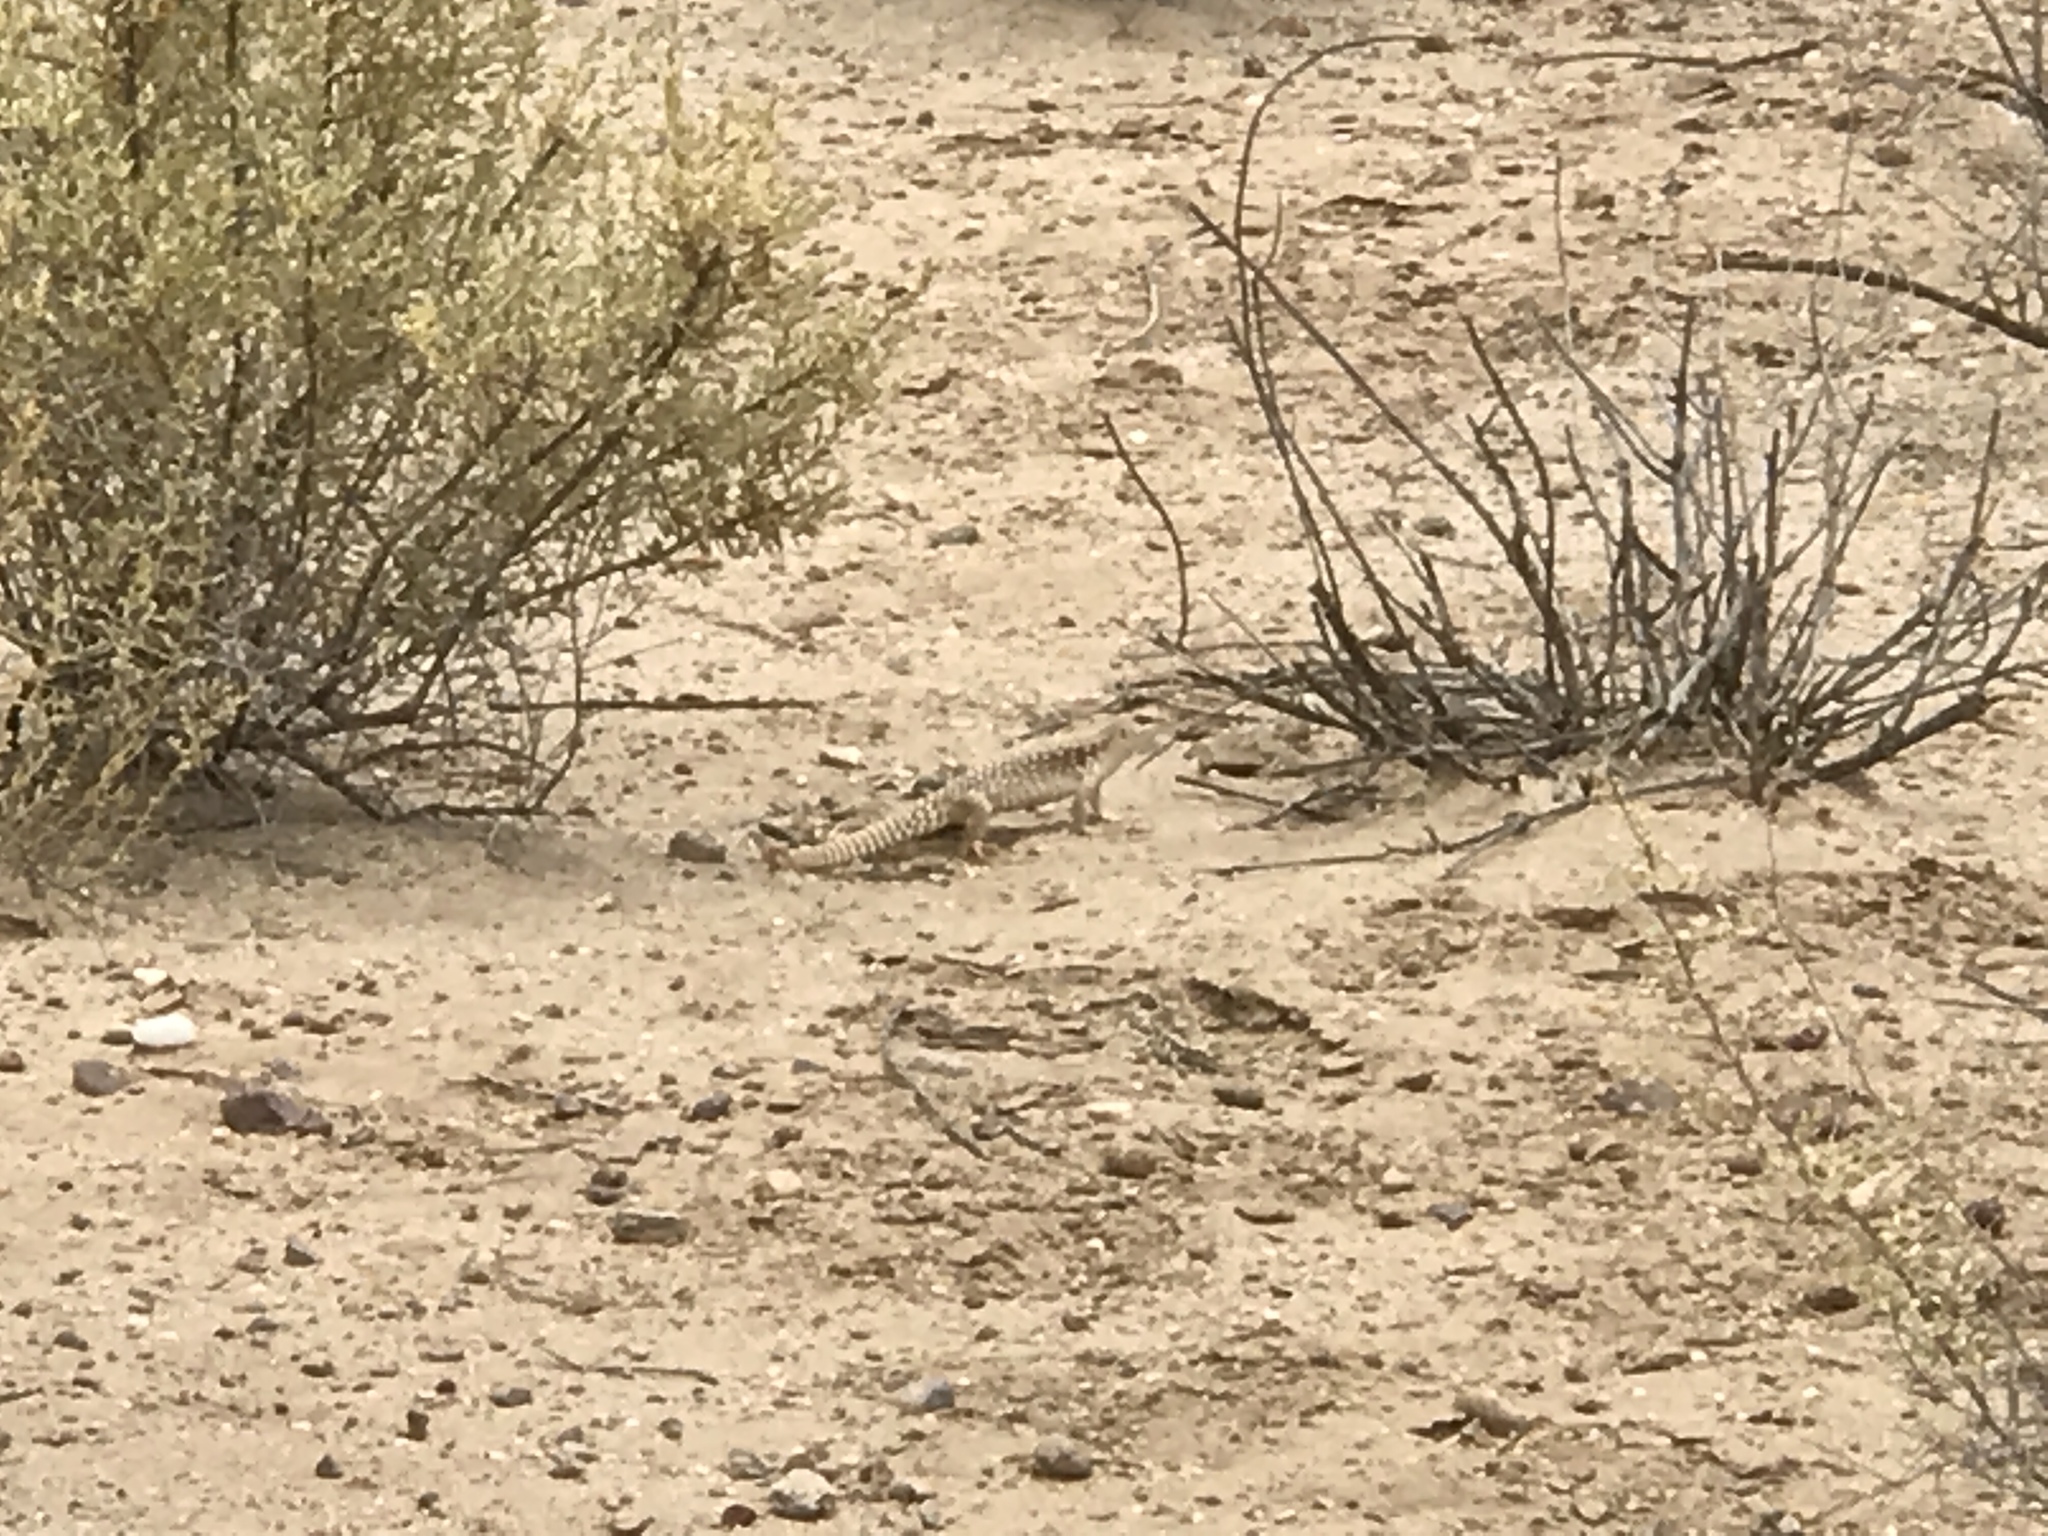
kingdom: Animalia
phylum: Chordata
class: Squamata
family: Iguanidae
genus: Dipsosaurus
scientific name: Dipsosaurus dorsalis
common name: Desert iguana
